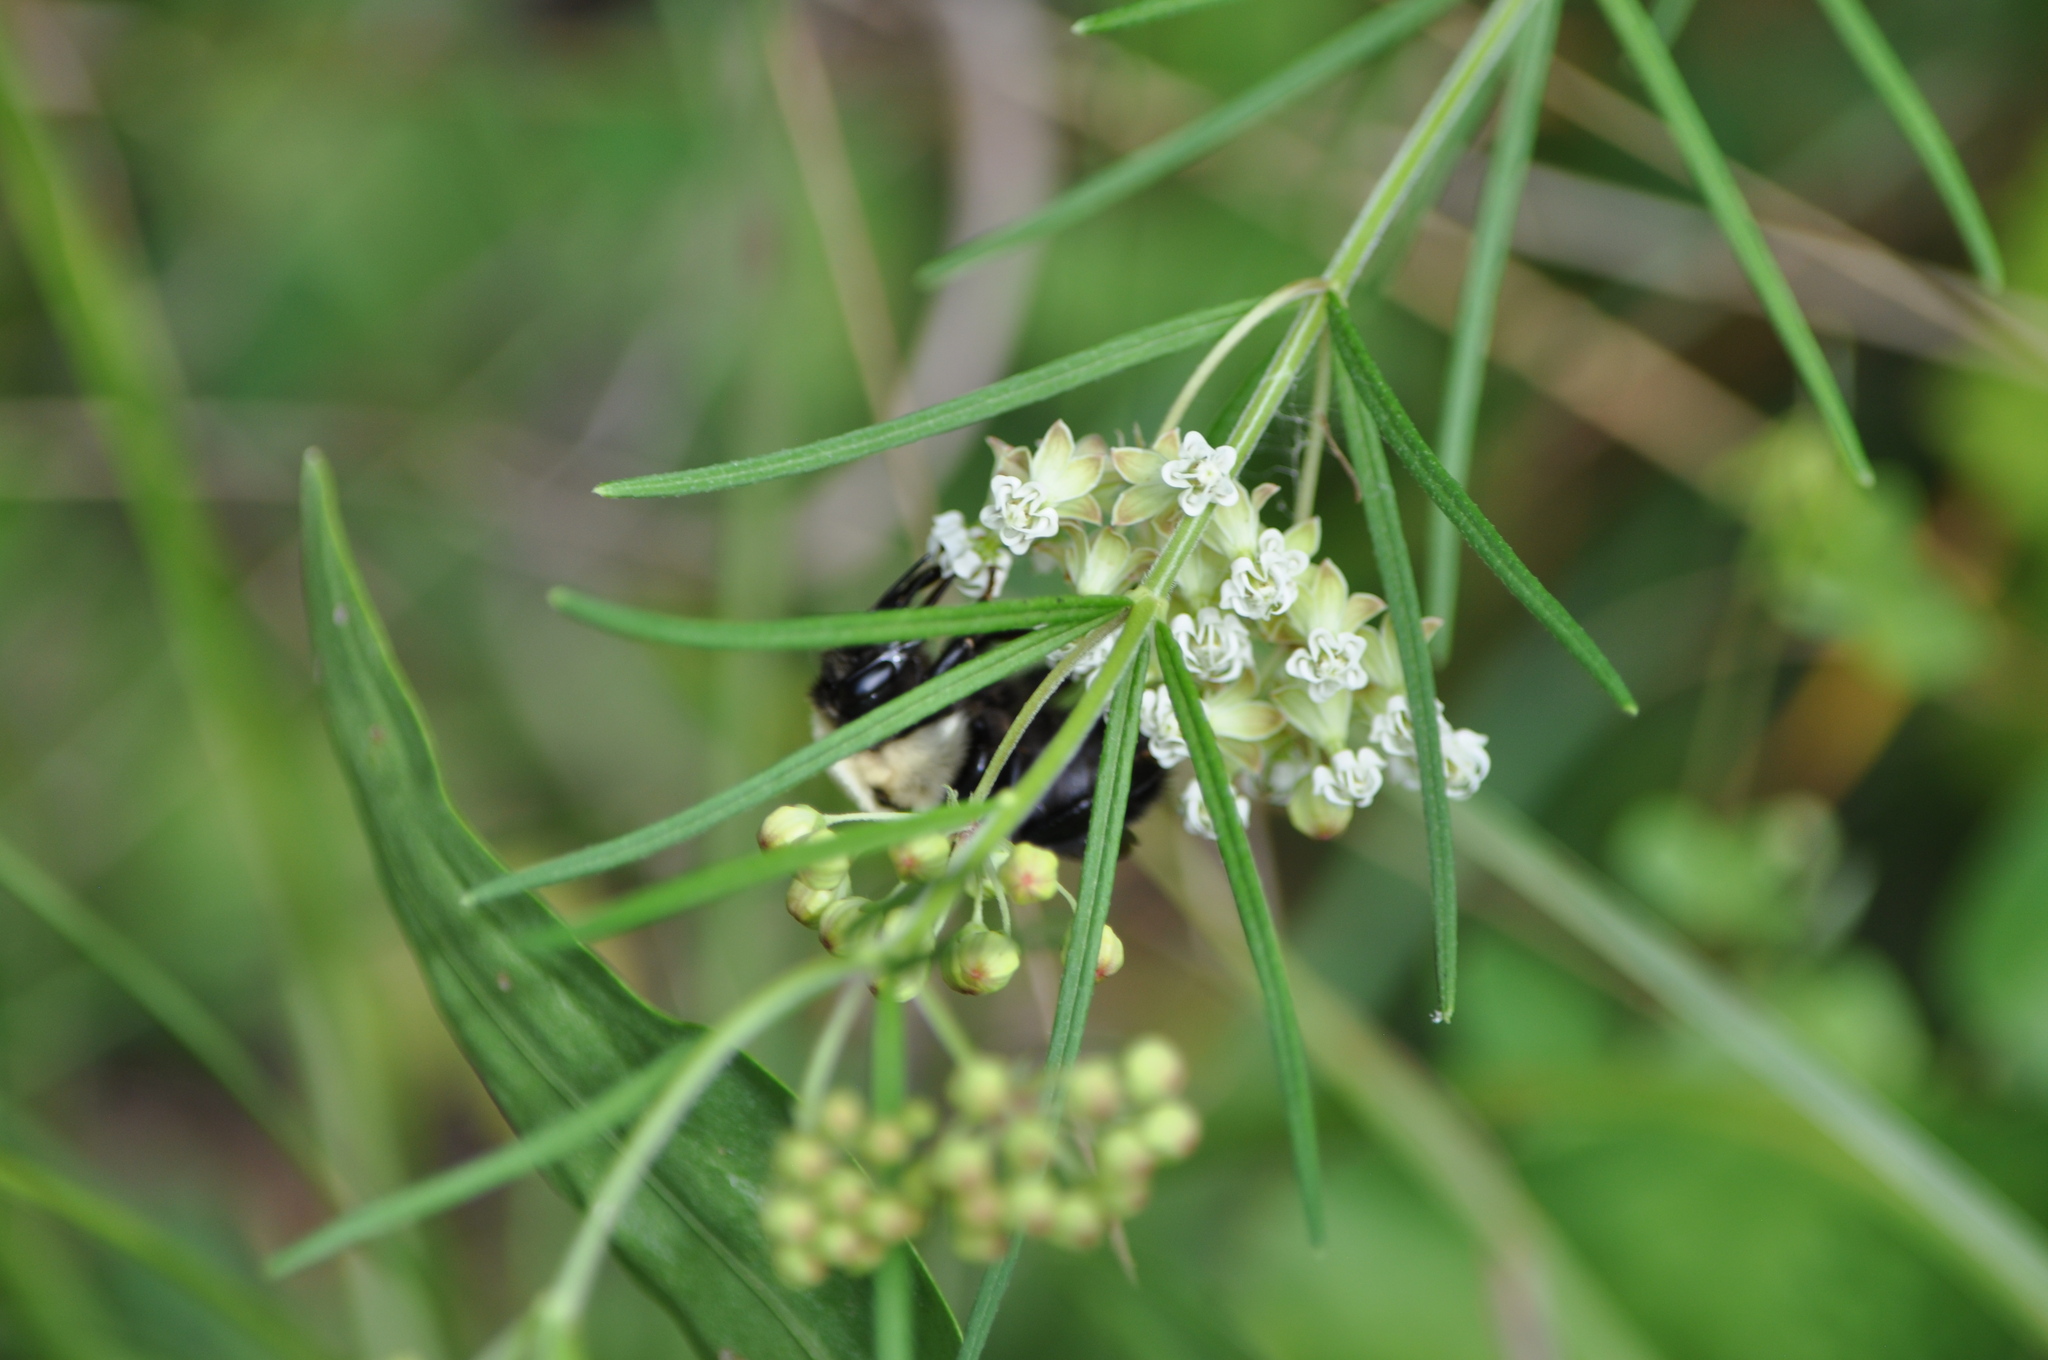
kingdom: Plantae
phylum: Tracheophyta
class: Magnoliopsida
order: Gentianales
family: Apocynaceae
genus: Asclepias
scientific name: Asclepias verticillata
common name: Eastern whorled milkweed
